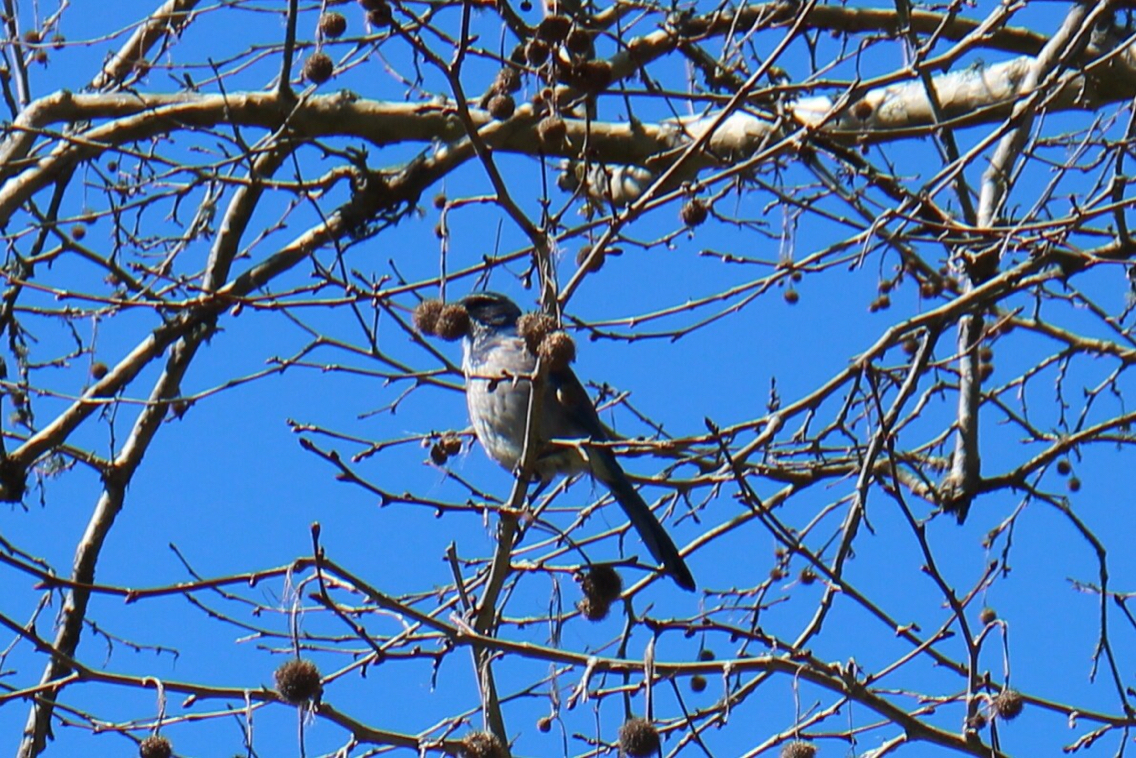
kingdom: Animalia
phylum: Chordata
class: Aves
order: Passeriformes
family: Corvidae
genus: Aphelocoma
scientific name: Aphelocoma californica
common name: California scrub-jay
